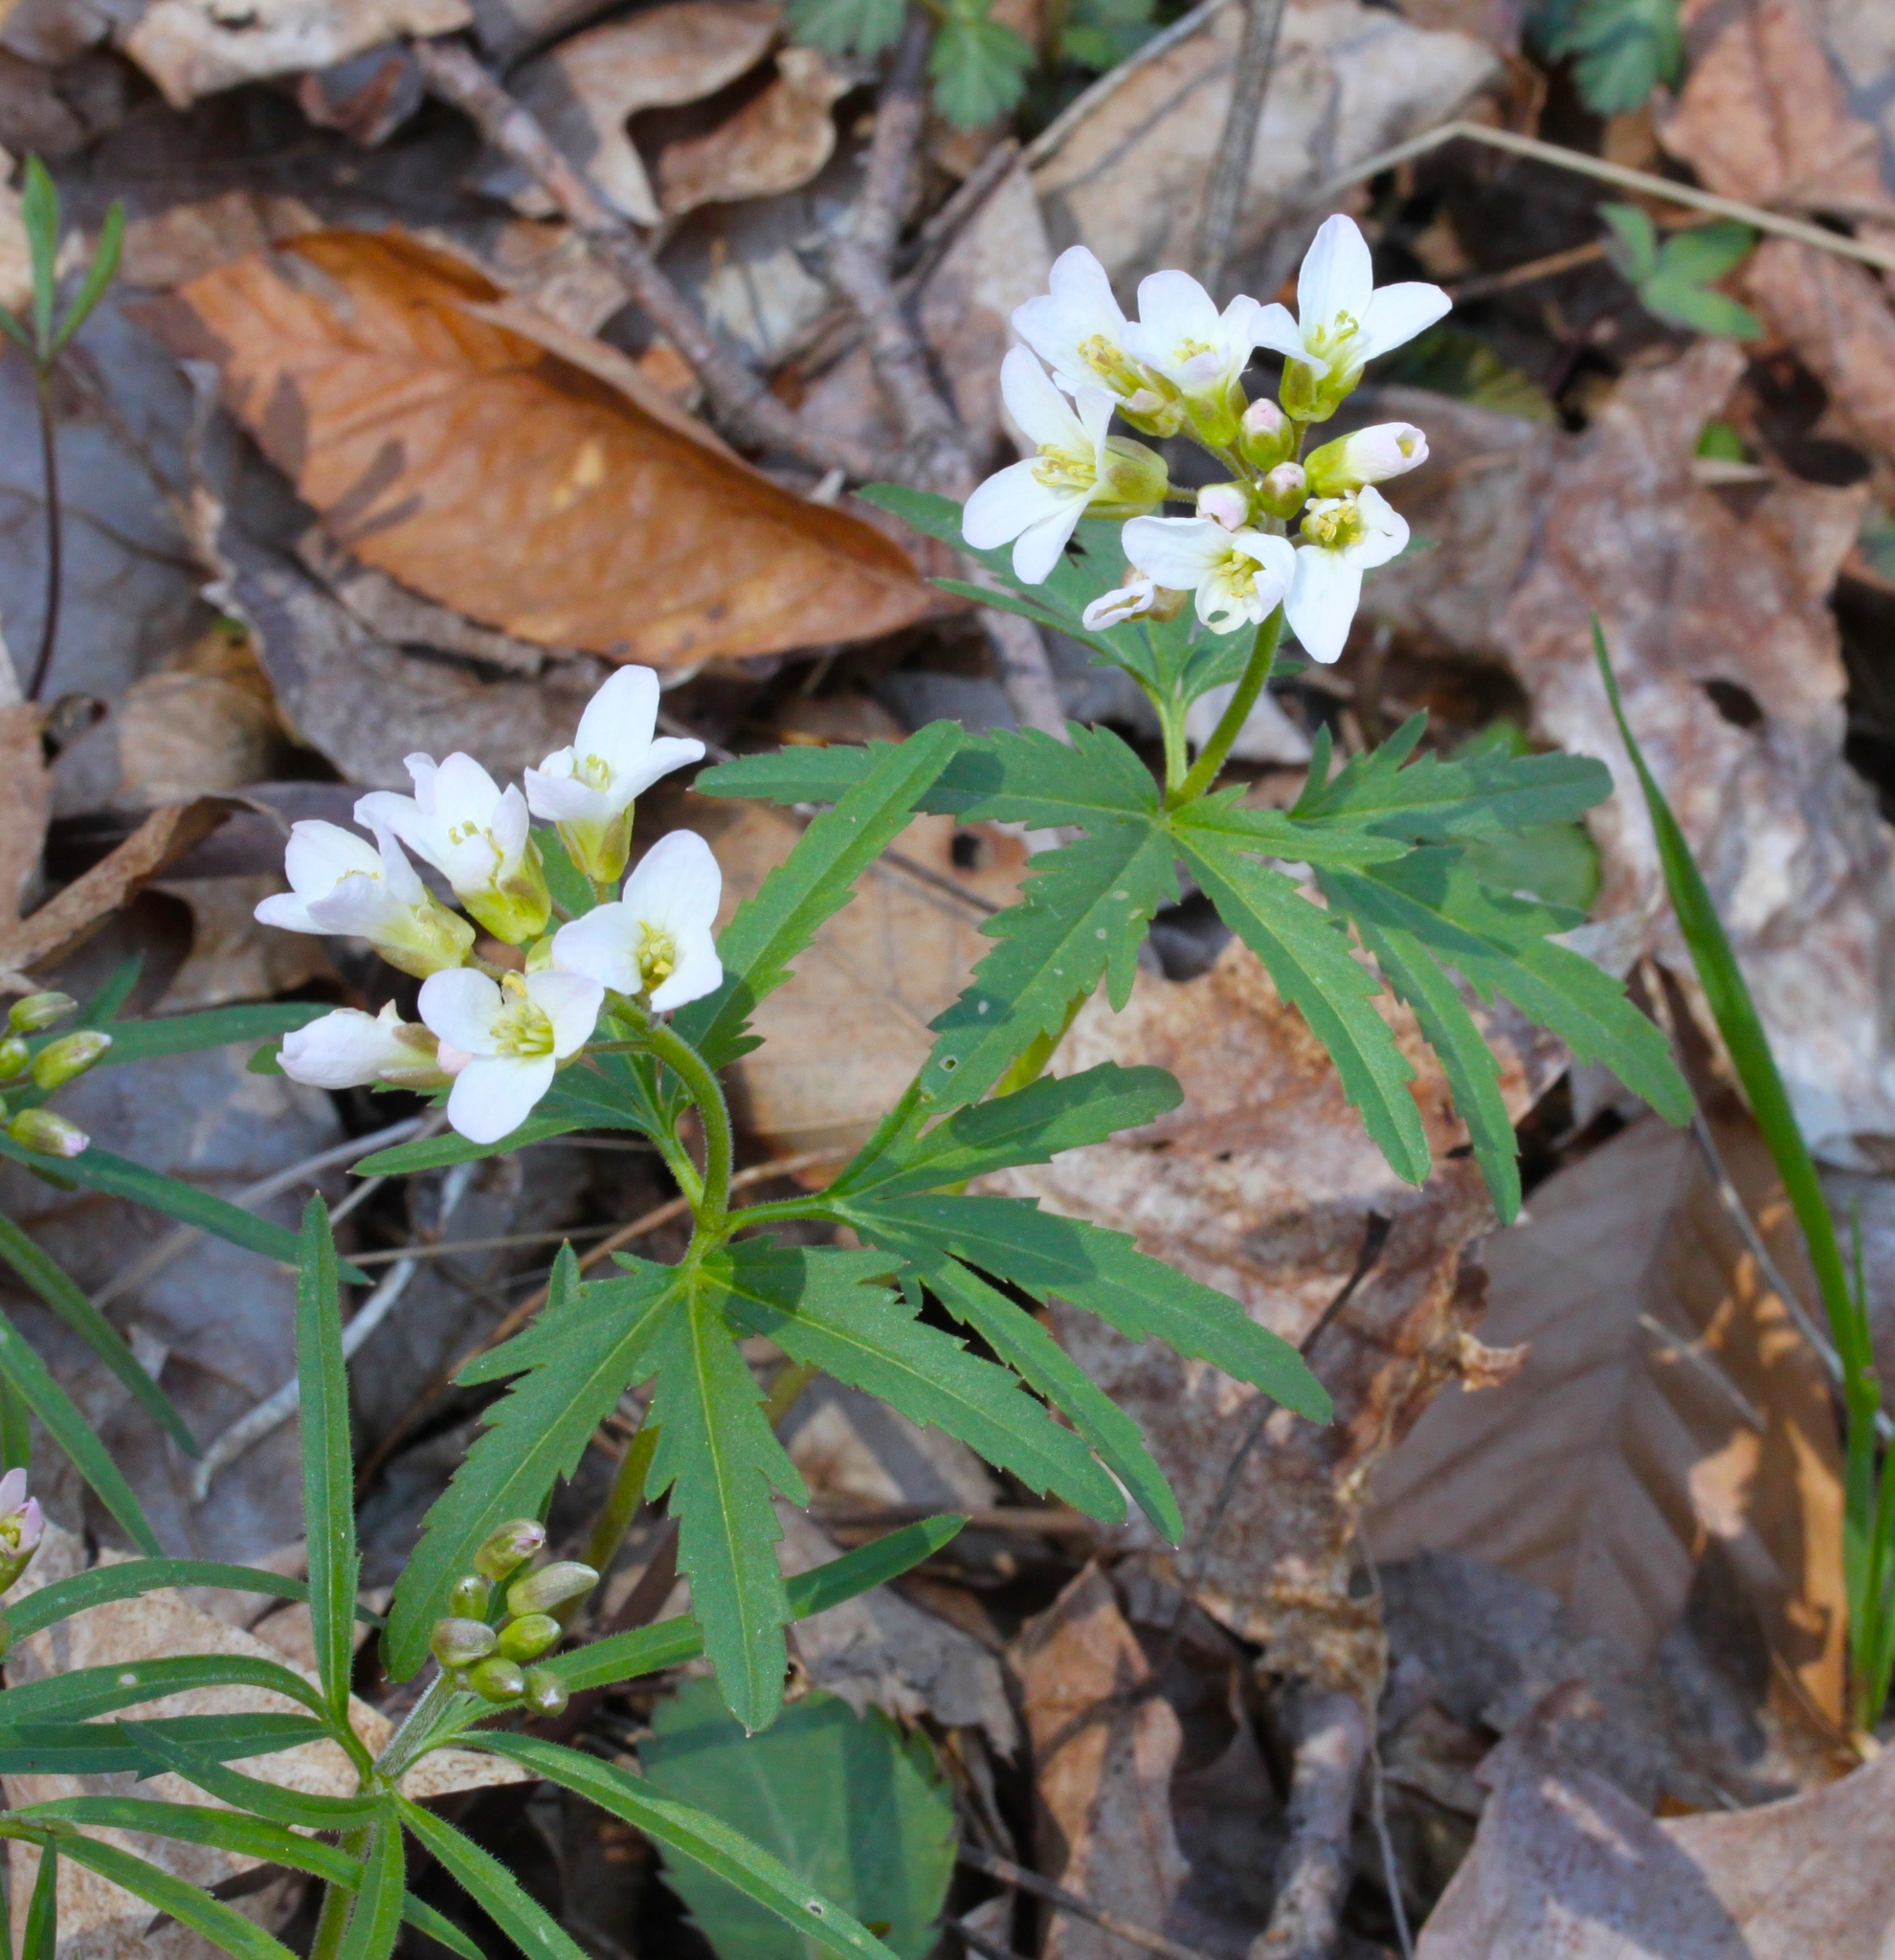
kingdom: Plantae
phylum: Tracheophyta
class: Magnoliopsida
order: Brassicales
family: Brassicaceae
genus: Cardamine
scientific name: Cardamine concatenata
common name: Cut-leaf toothcup
